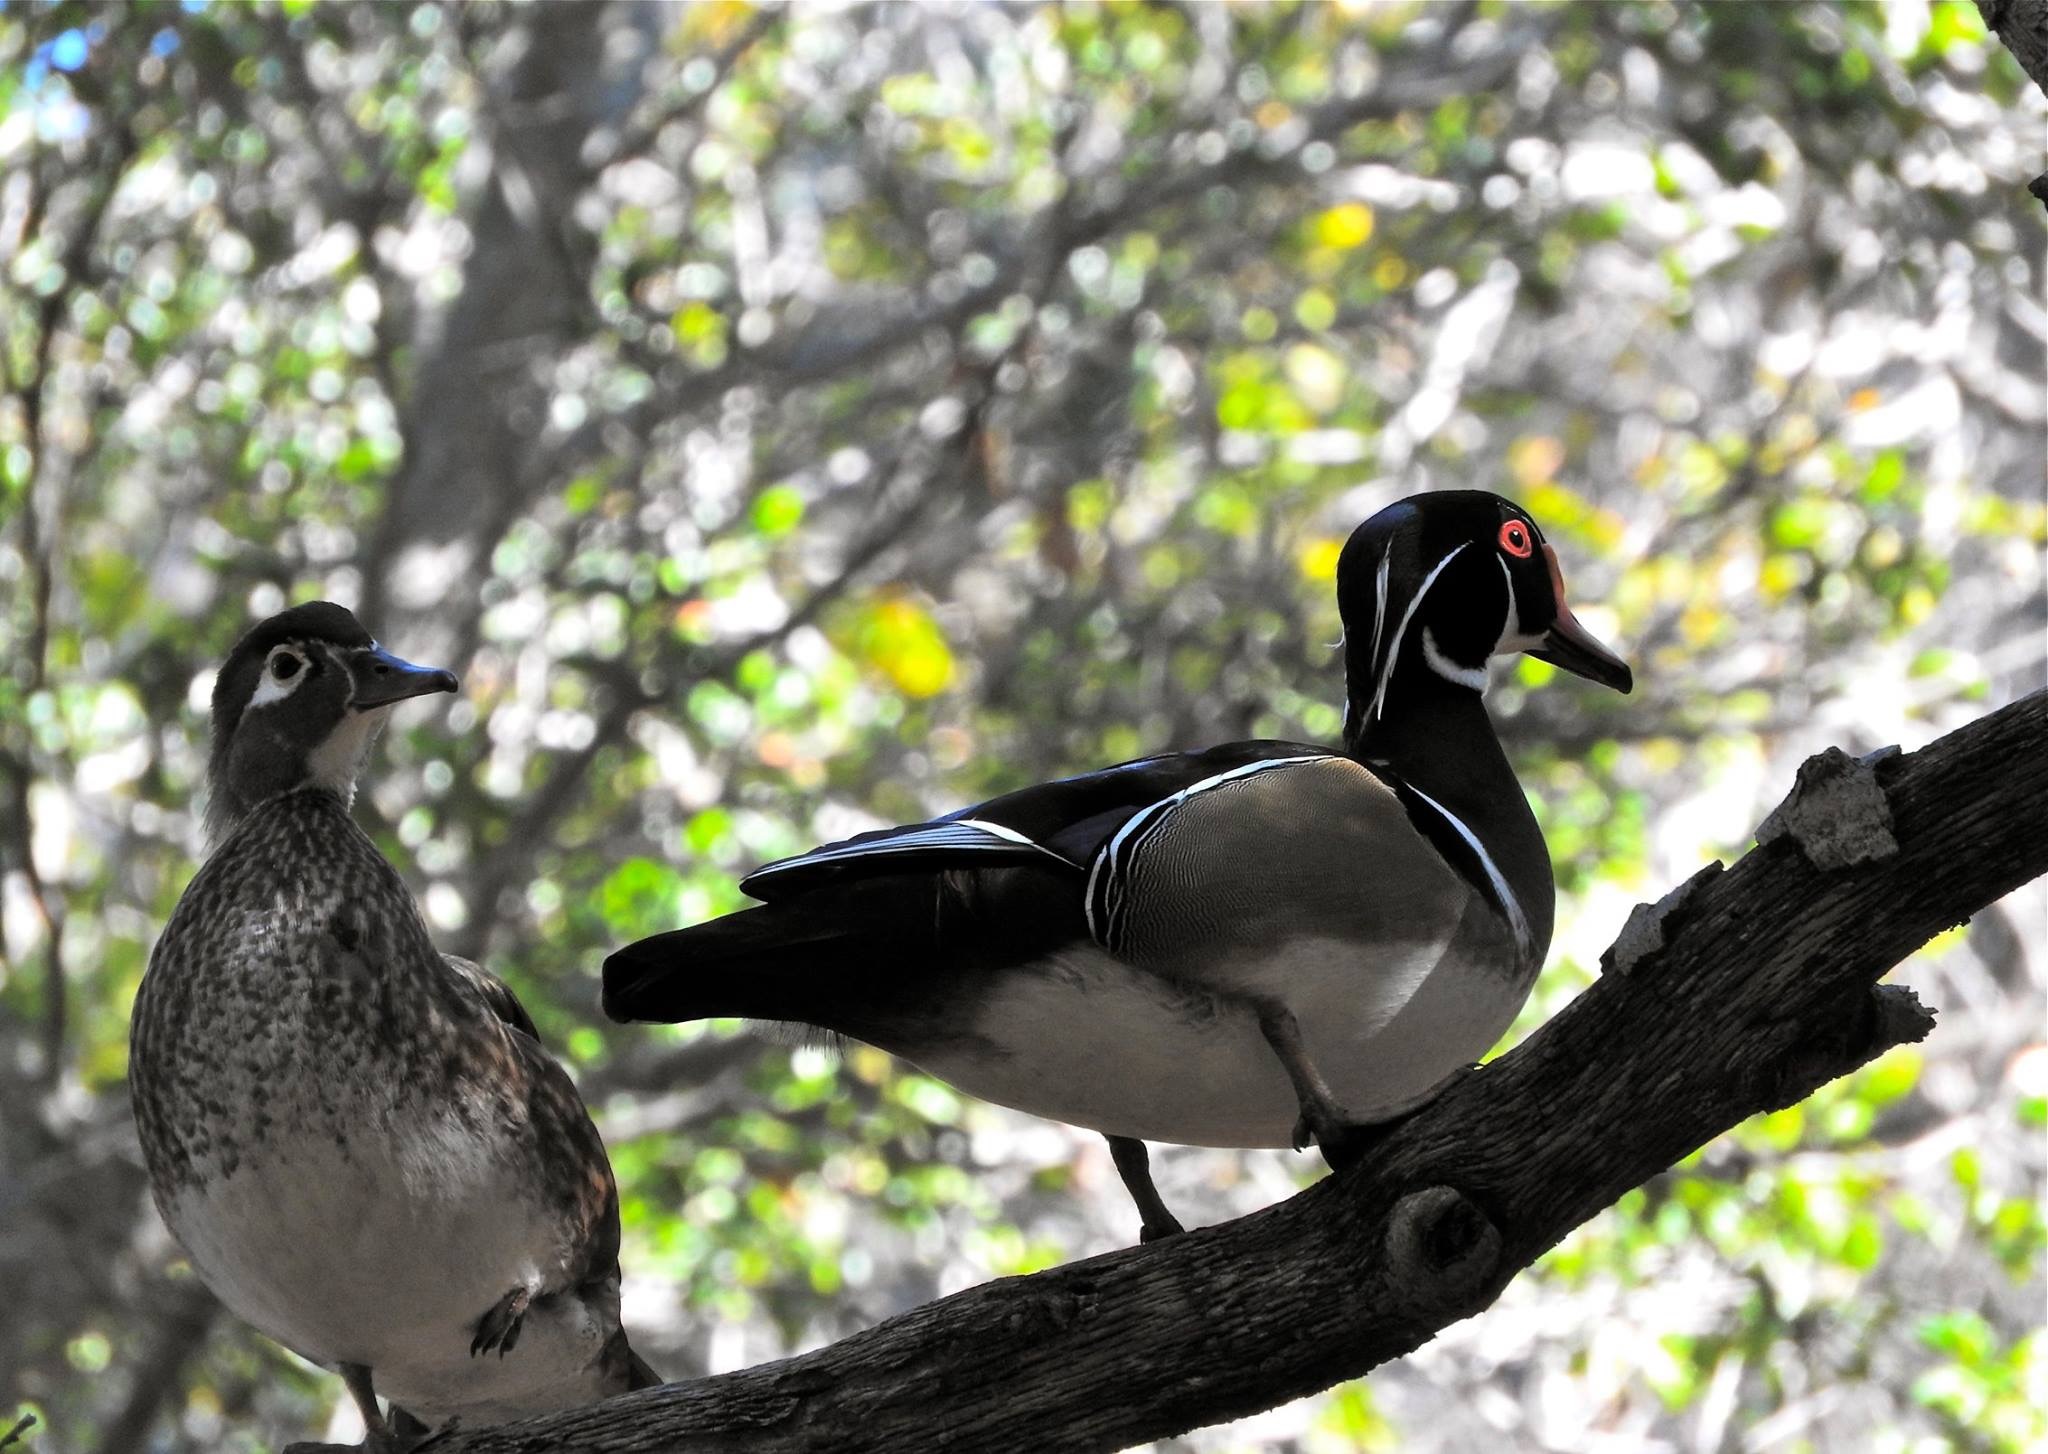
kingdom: Animalia
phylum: Chordata
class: Aves
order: Anseriformes
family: Anatidae
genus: Aix
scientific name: Aix sponsa
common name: Wood duck
